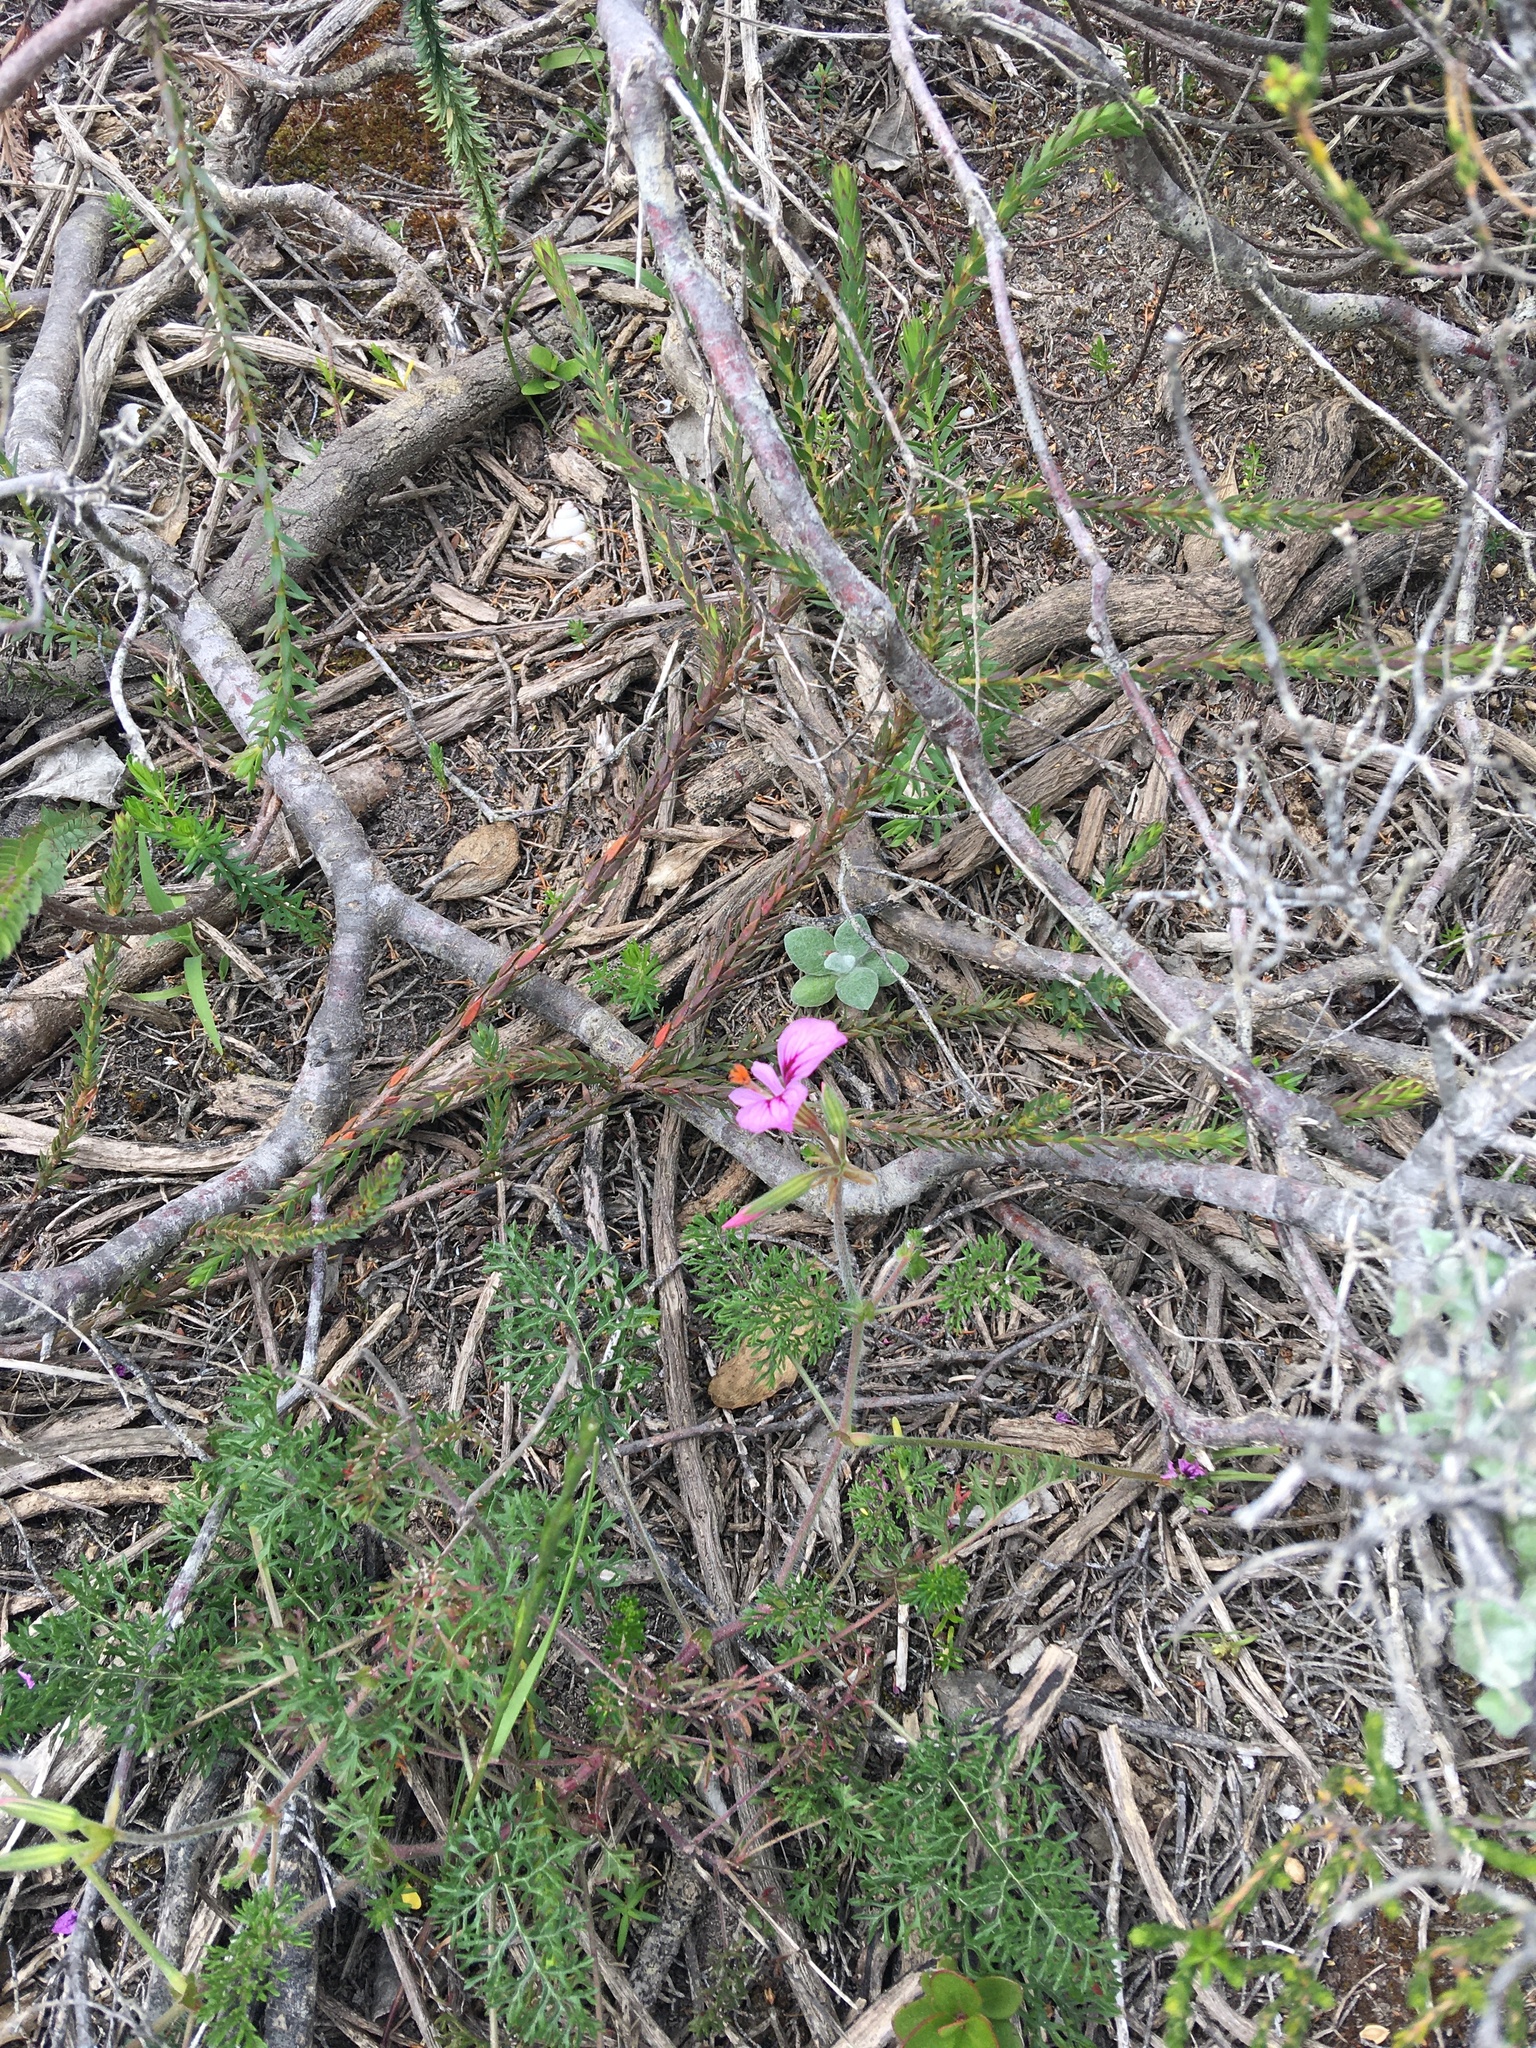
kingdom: Plantae
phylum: Tracheophyta
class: Magnoliopsida
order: Geraniales
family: Geraniaceae
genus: Pelargonium
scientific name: Pelargonium myrrhifolium
